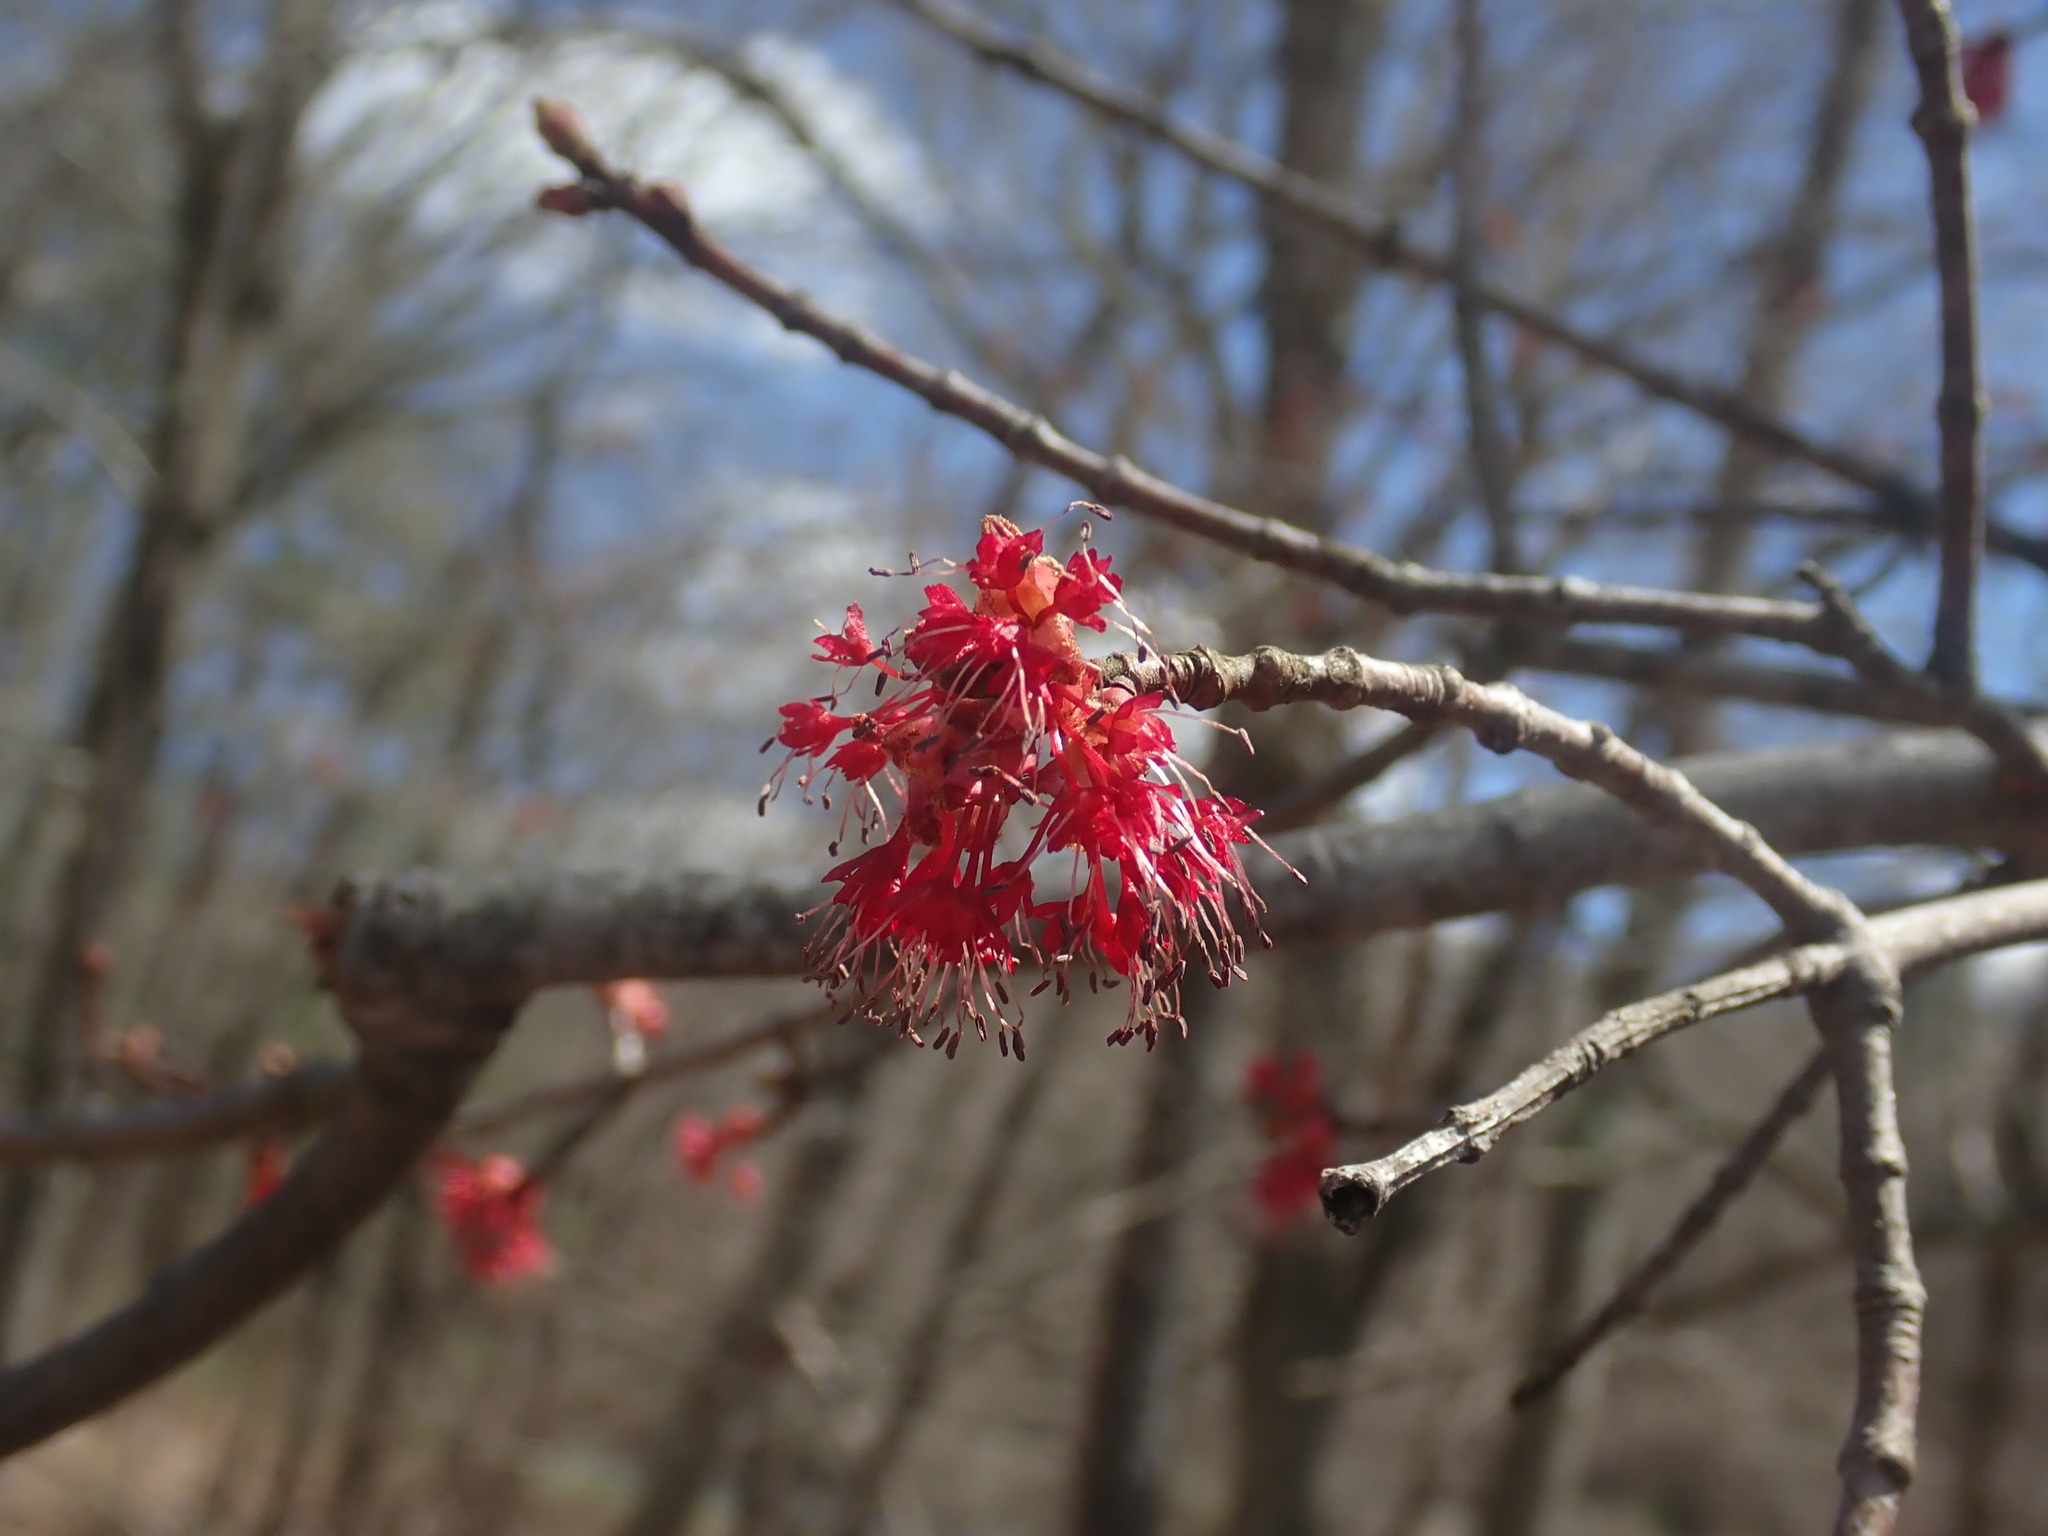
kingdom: Plantae
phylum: Tracheophyta
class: Magnoliopsida
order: Sapindales
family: Sapindaceae
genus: Acer
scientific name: Acer rubrum
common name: Red maple
